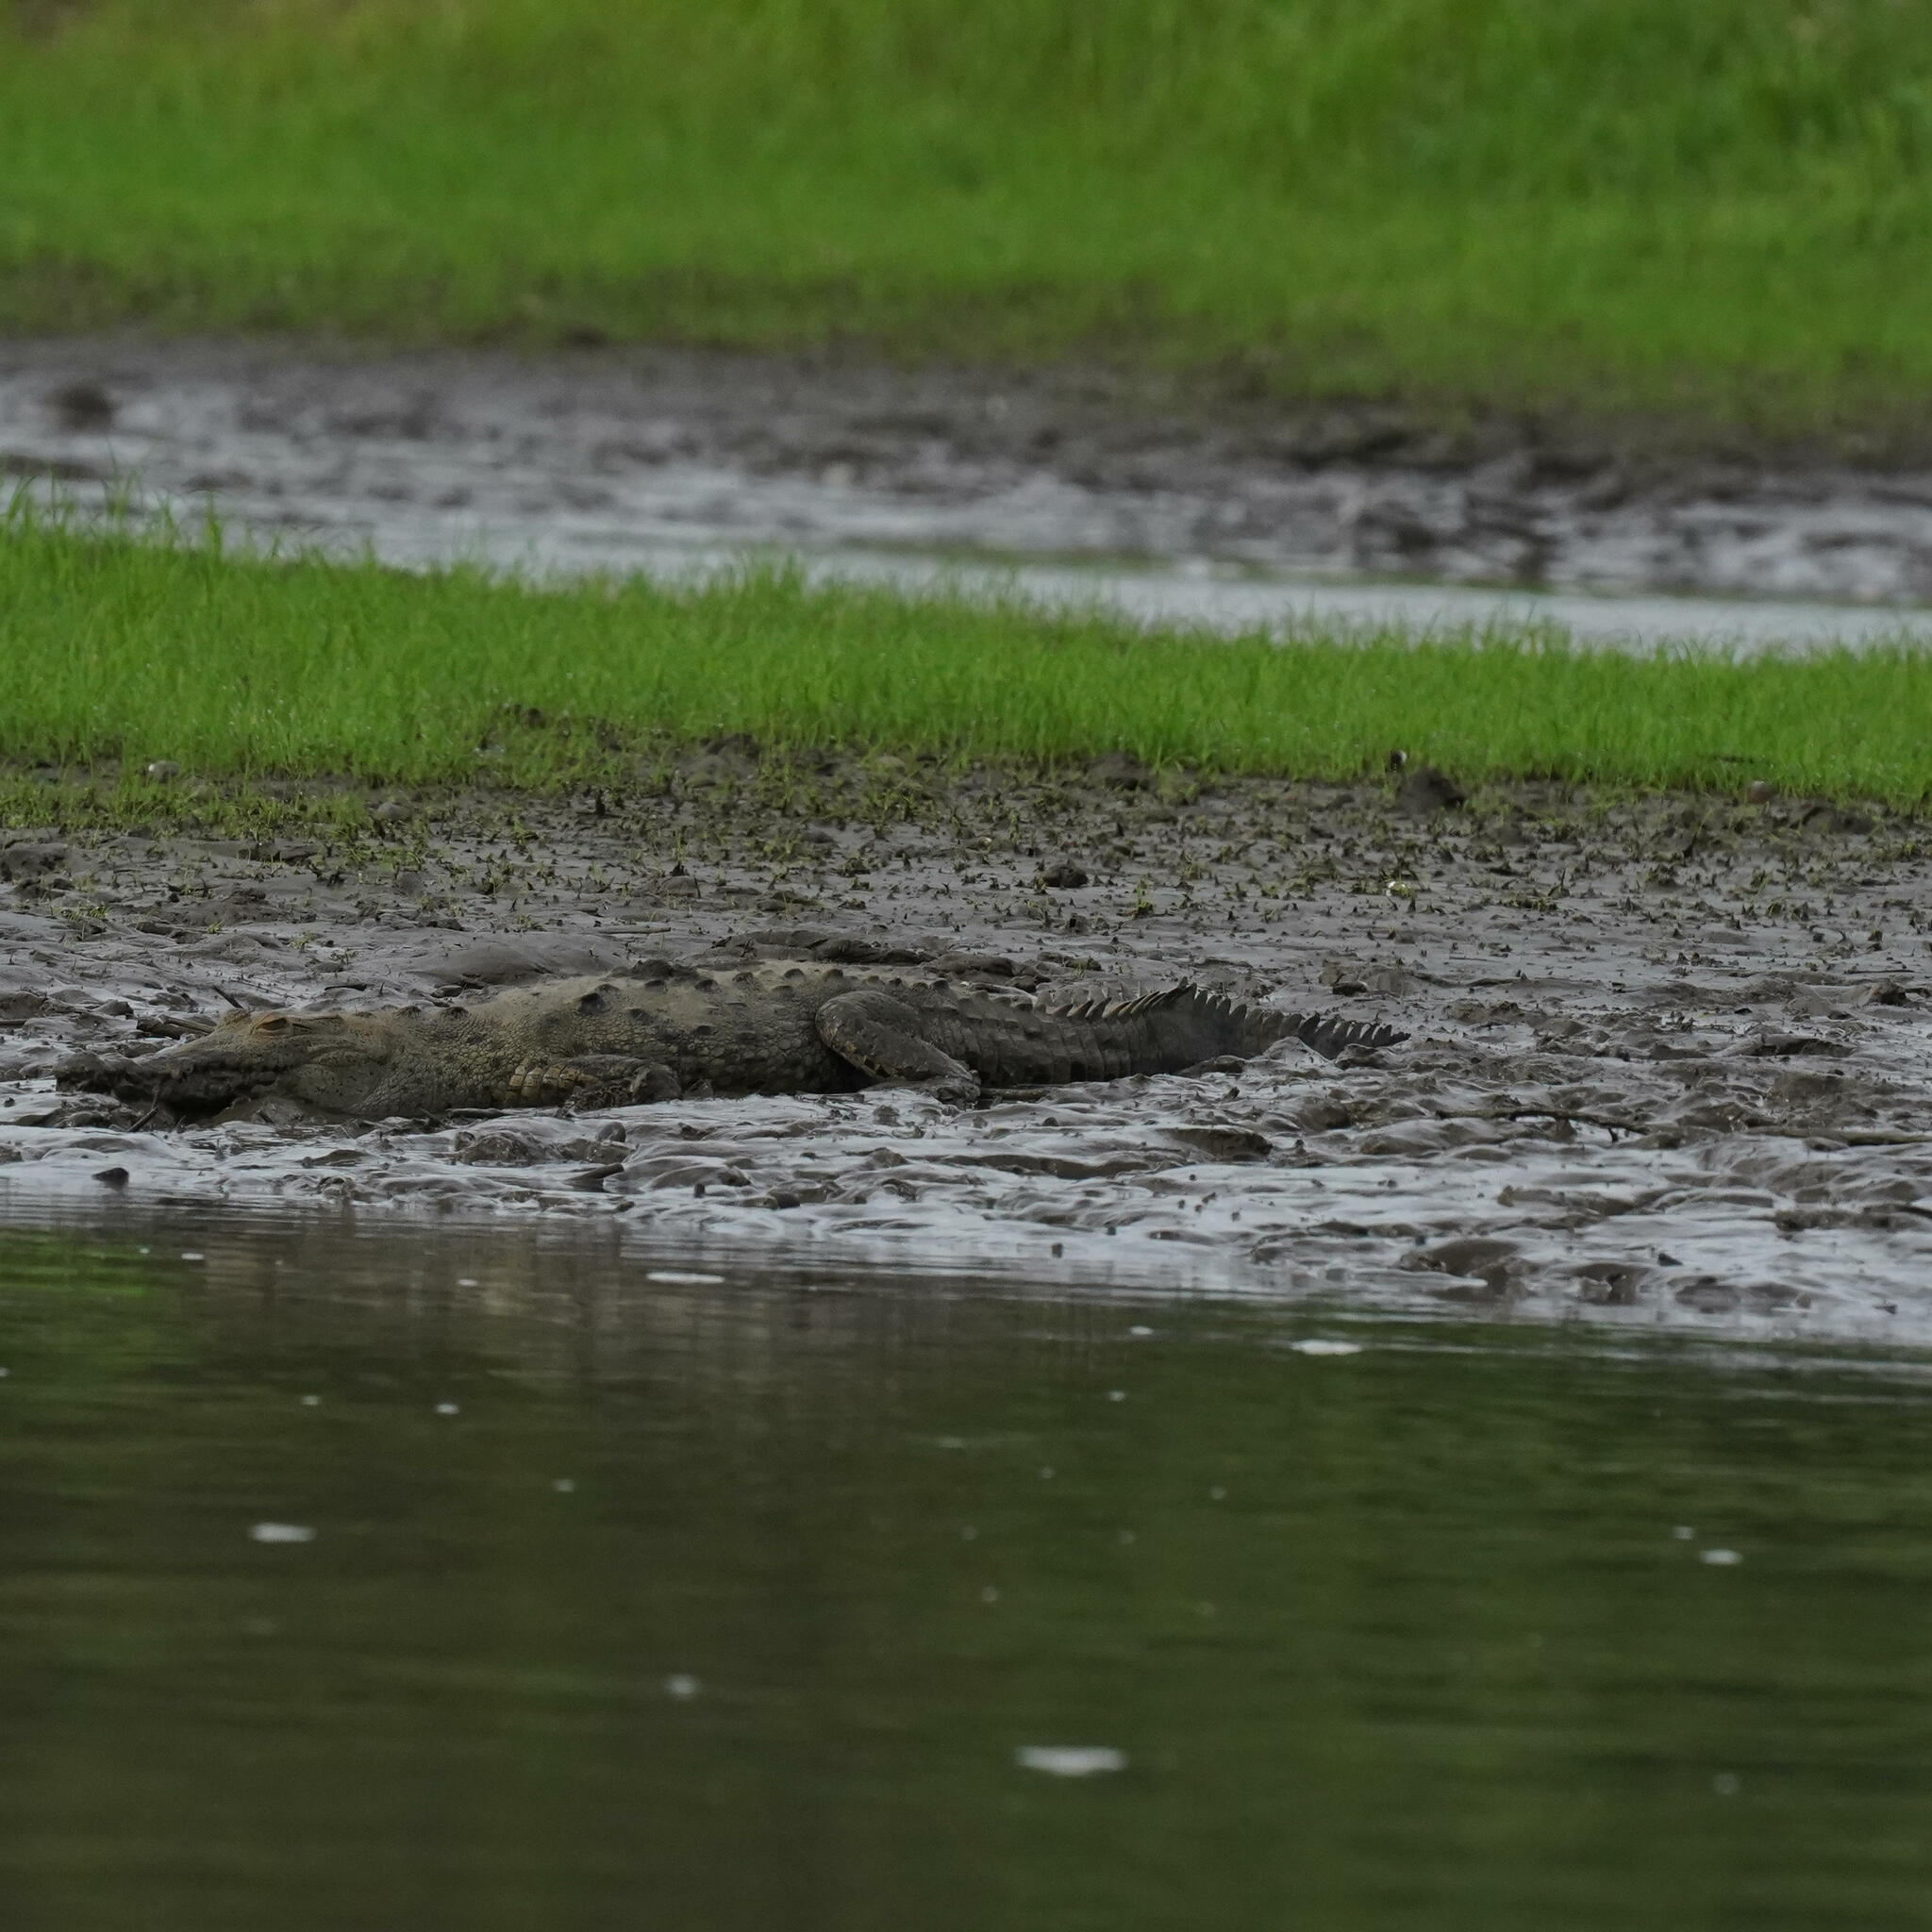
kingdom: Animalia
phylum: Chordata
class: Crocodylia
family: Crocodylidae
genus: Crocodylus
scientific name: Crocodylus acutus
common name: American crocodile
